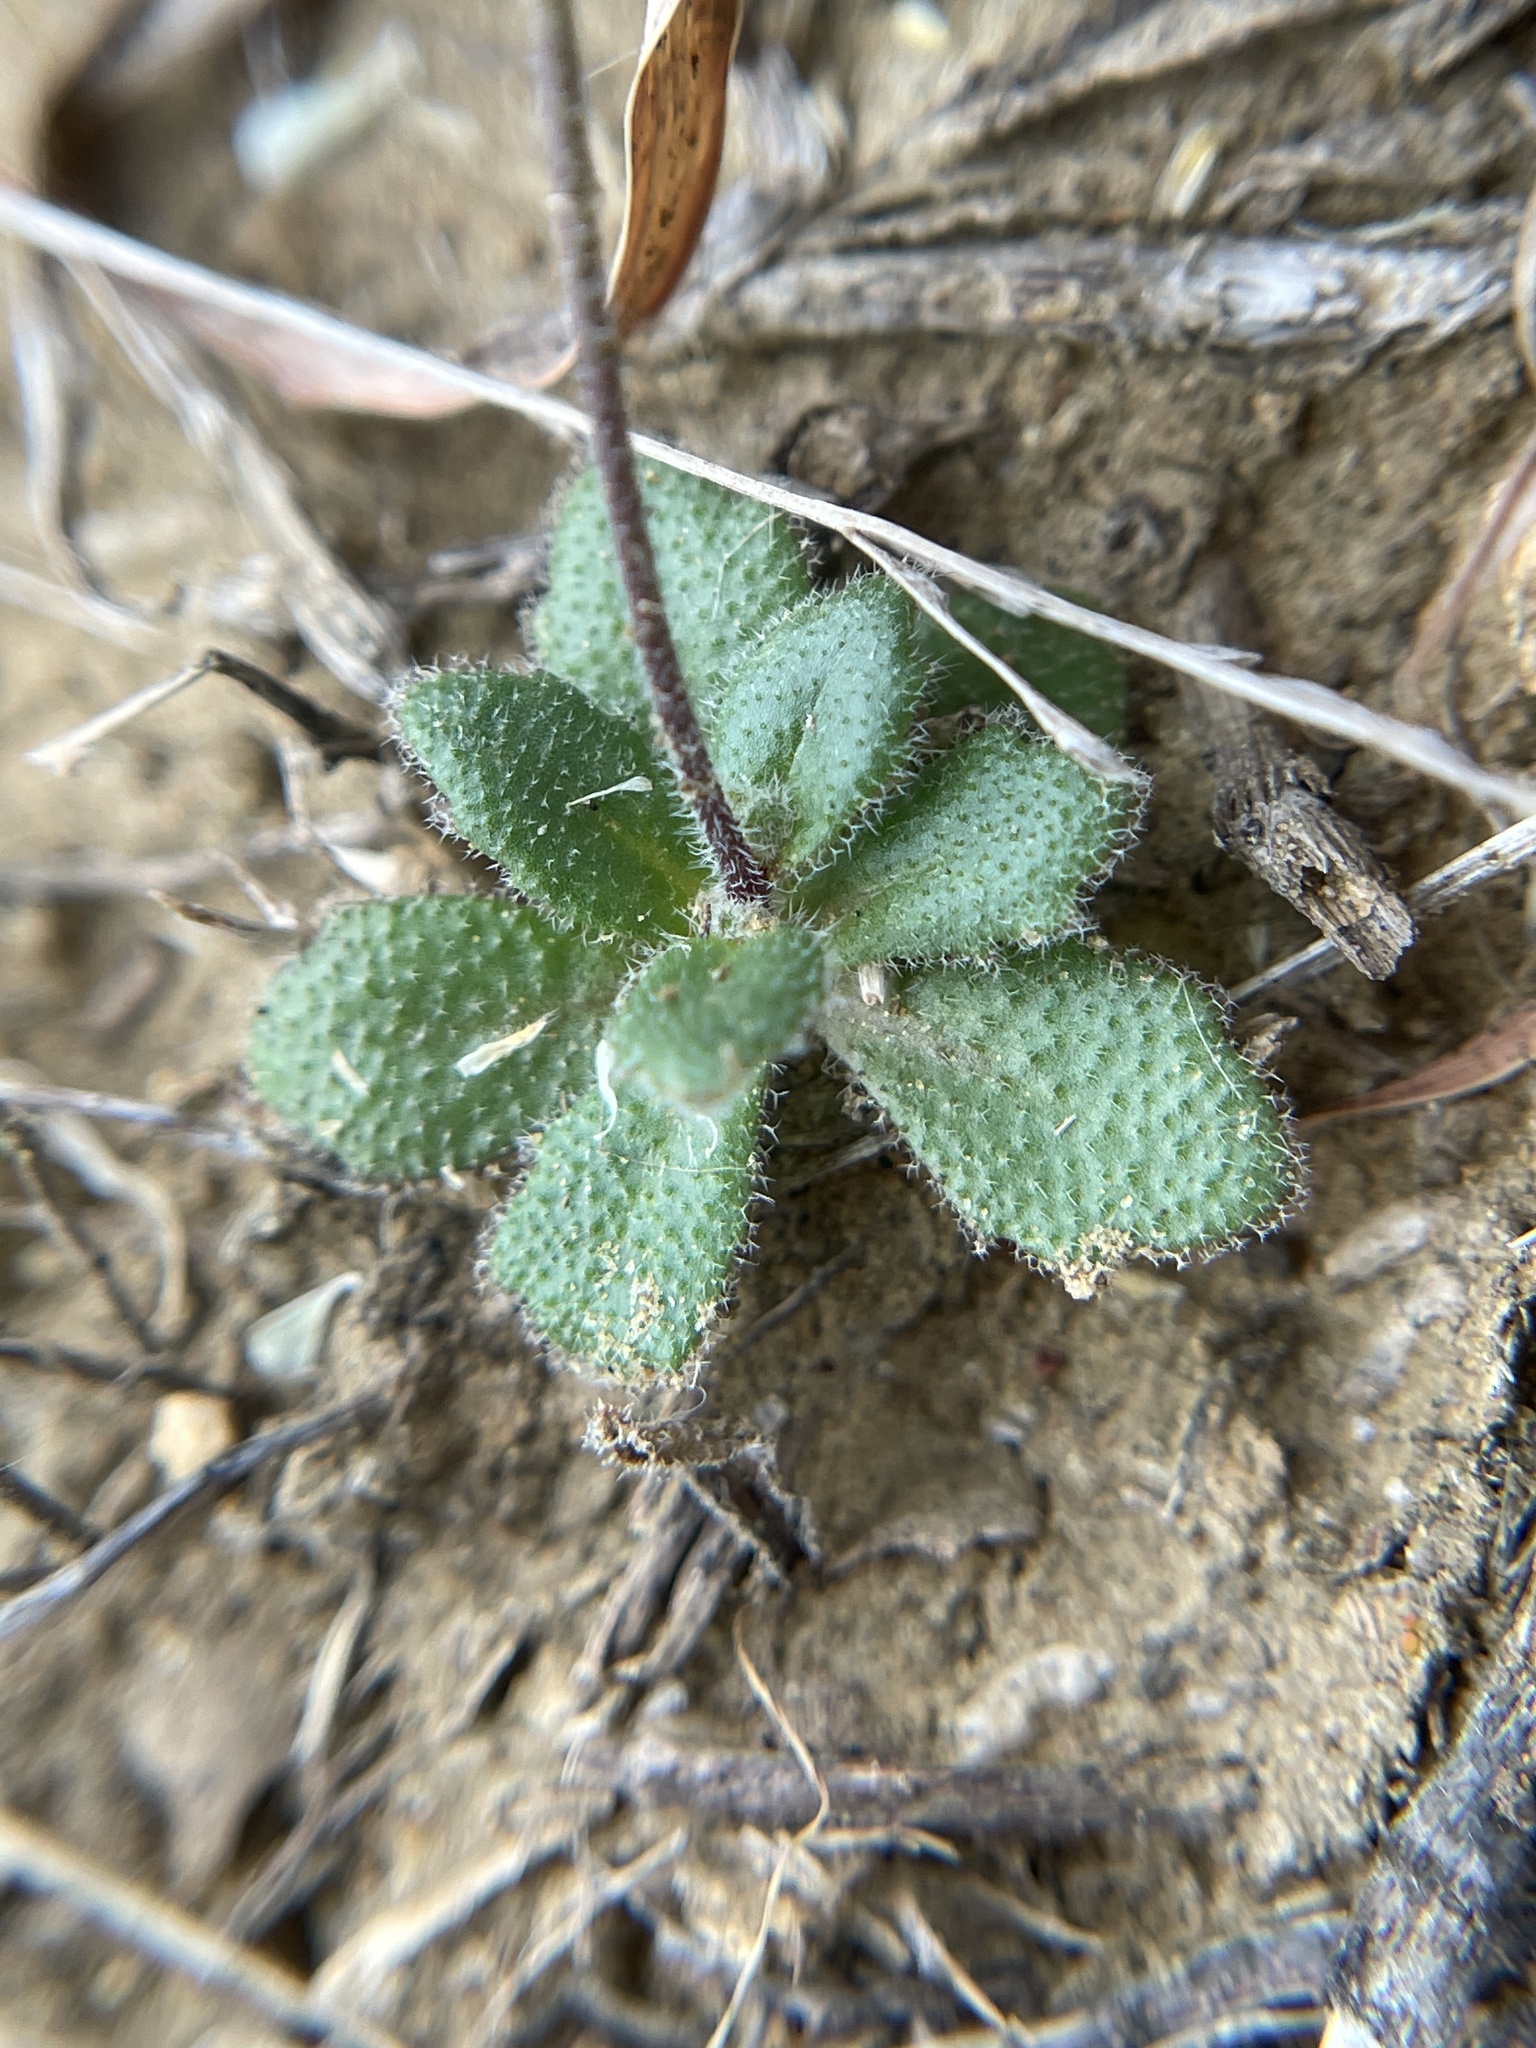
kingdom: Plantae
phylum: Tracheophyta
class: Magnoliopsida
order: Brassicales
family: Brassicaceae
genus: Tomostima
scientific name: Tomostima cuneifolia
